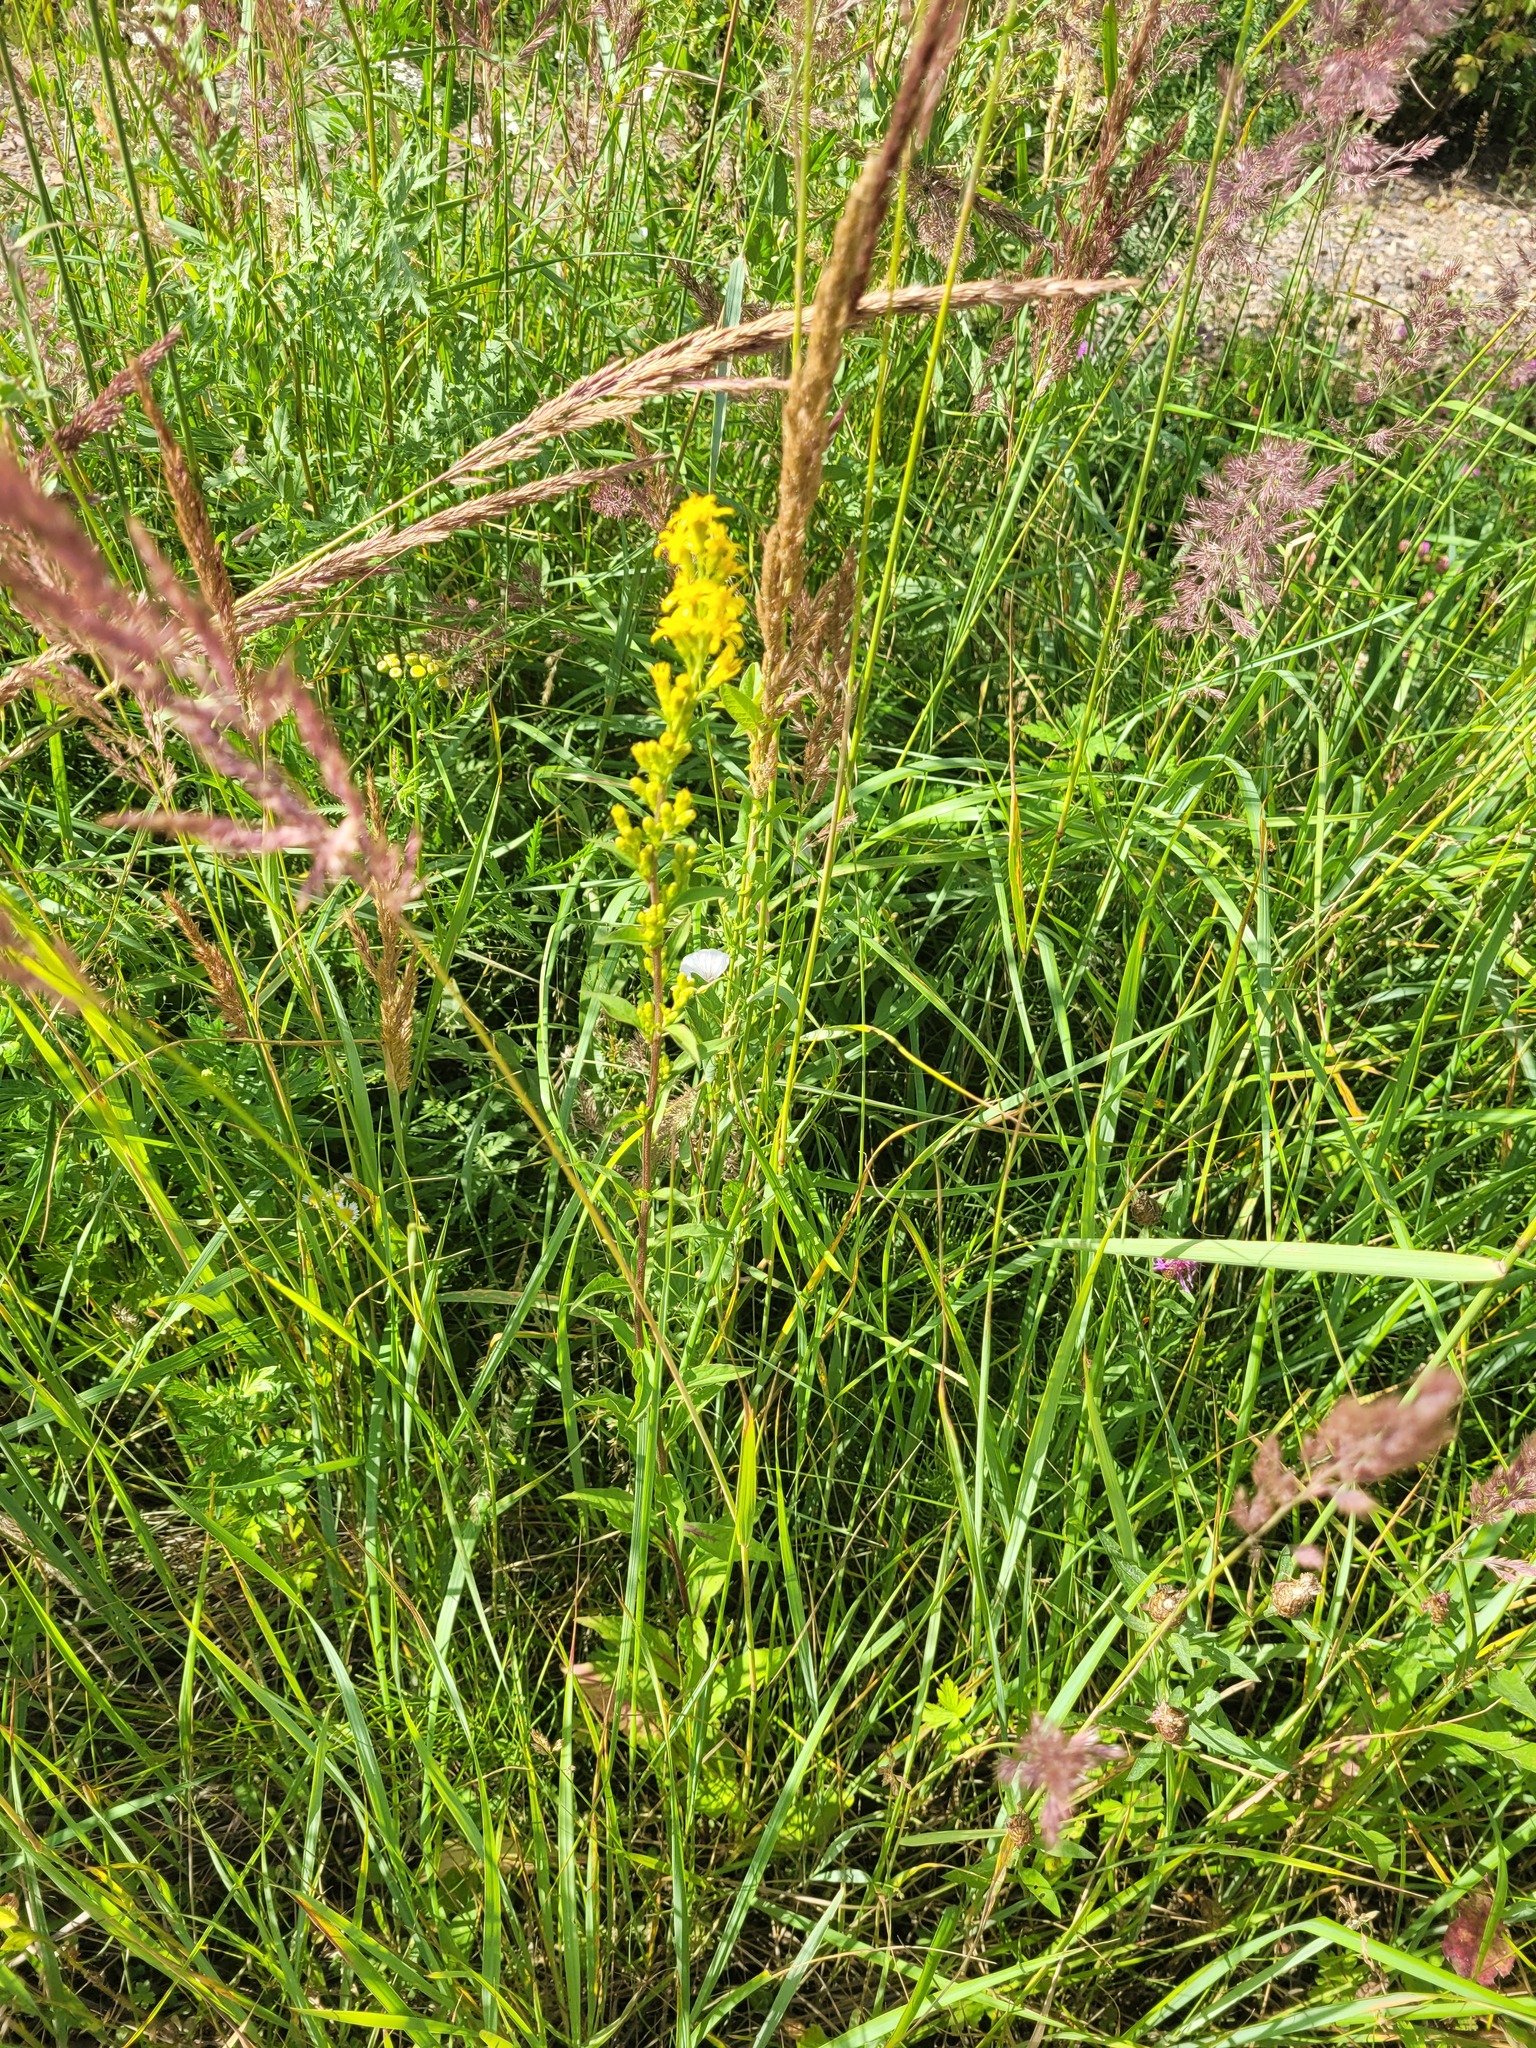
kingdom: Plantae
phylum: Tracheophyta
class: Magnoliopsida
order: Asterales
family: Asteraceae
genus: Solidago
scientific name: Solidago virgaurea
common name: Goldenrod
